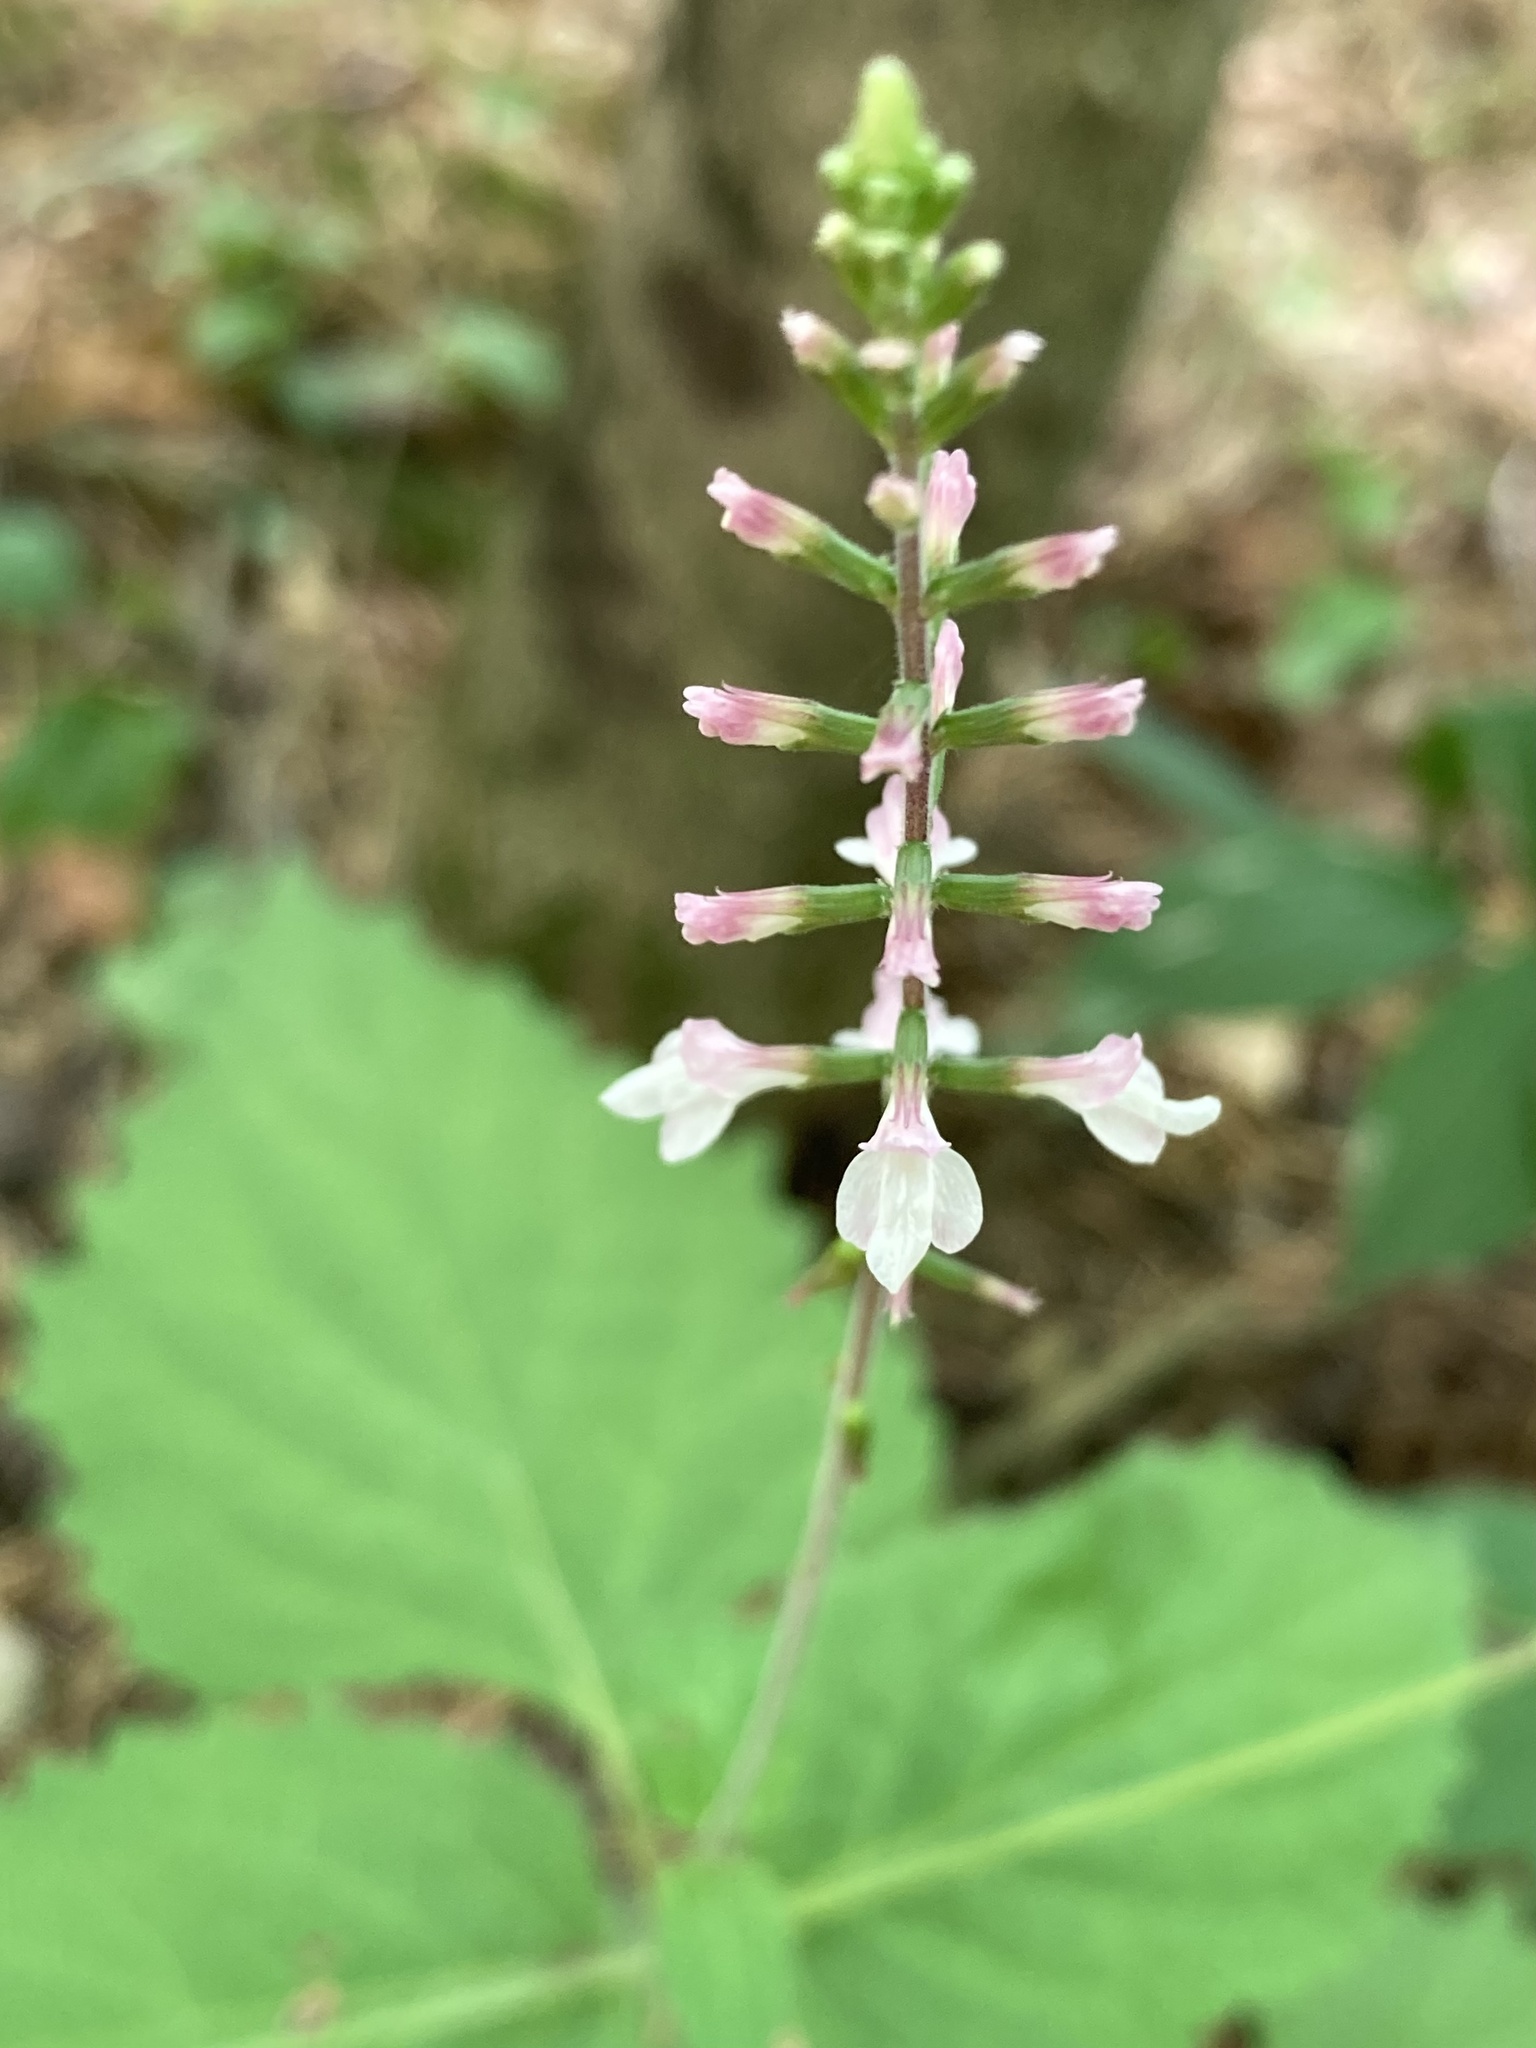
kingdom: Plantae
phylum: Tracheophyta
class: Magnoliopsida
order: Lamiales
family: Phrymaceae
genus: Phryma
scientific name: Phryma leptostachya
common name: American lopseed
